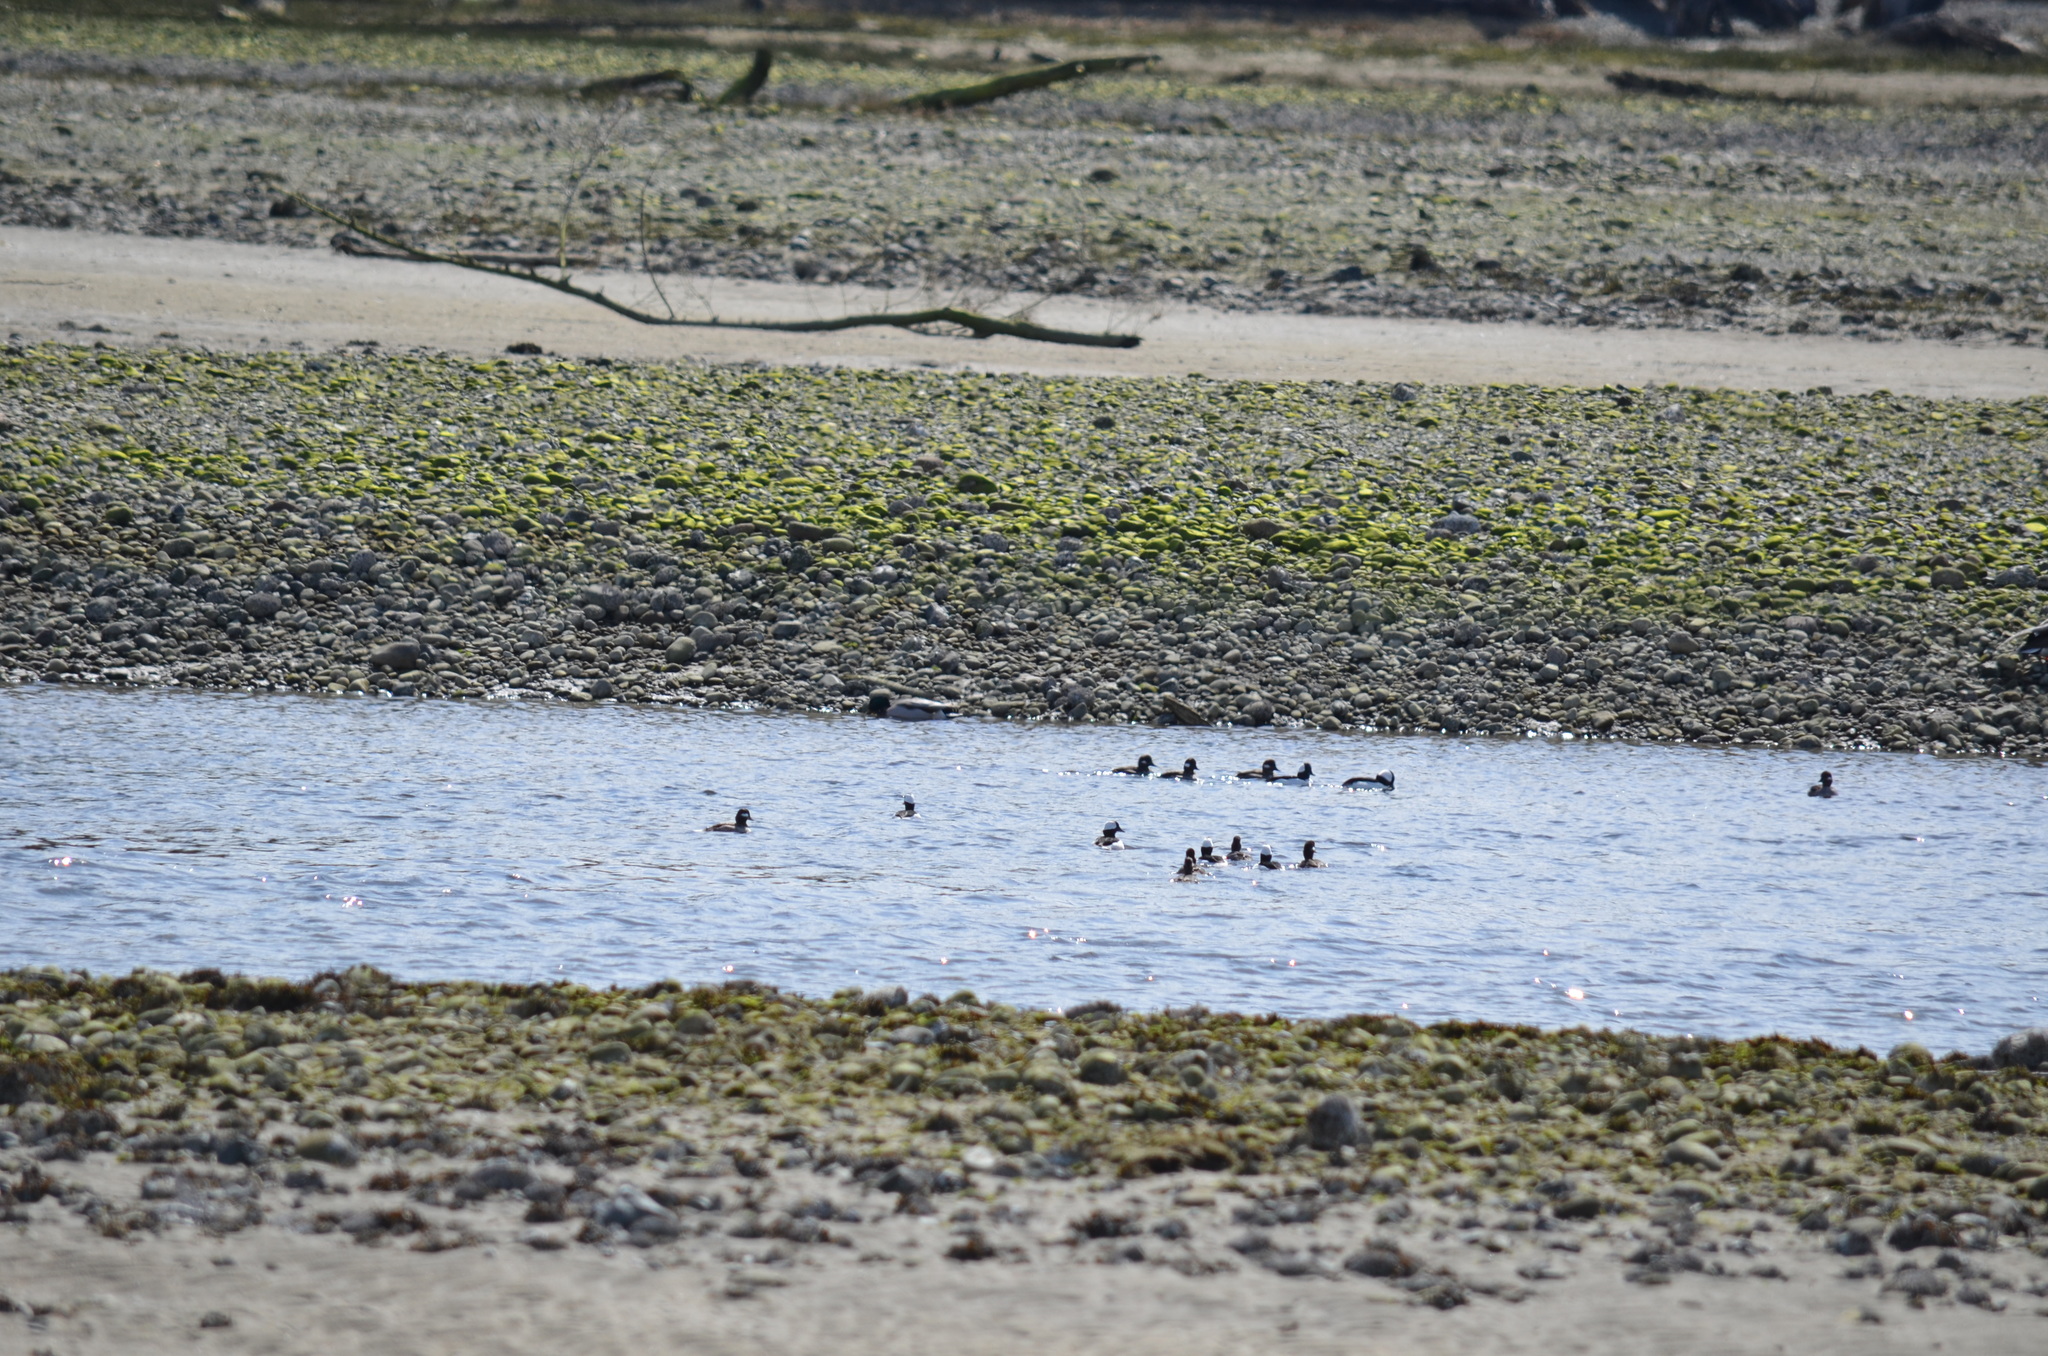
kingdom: Animalia
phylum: Chordata
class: Aves
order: Anseriformes
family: Anatidae
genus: Bucephala
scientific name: Bucephala albeola
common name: Bufflehead
